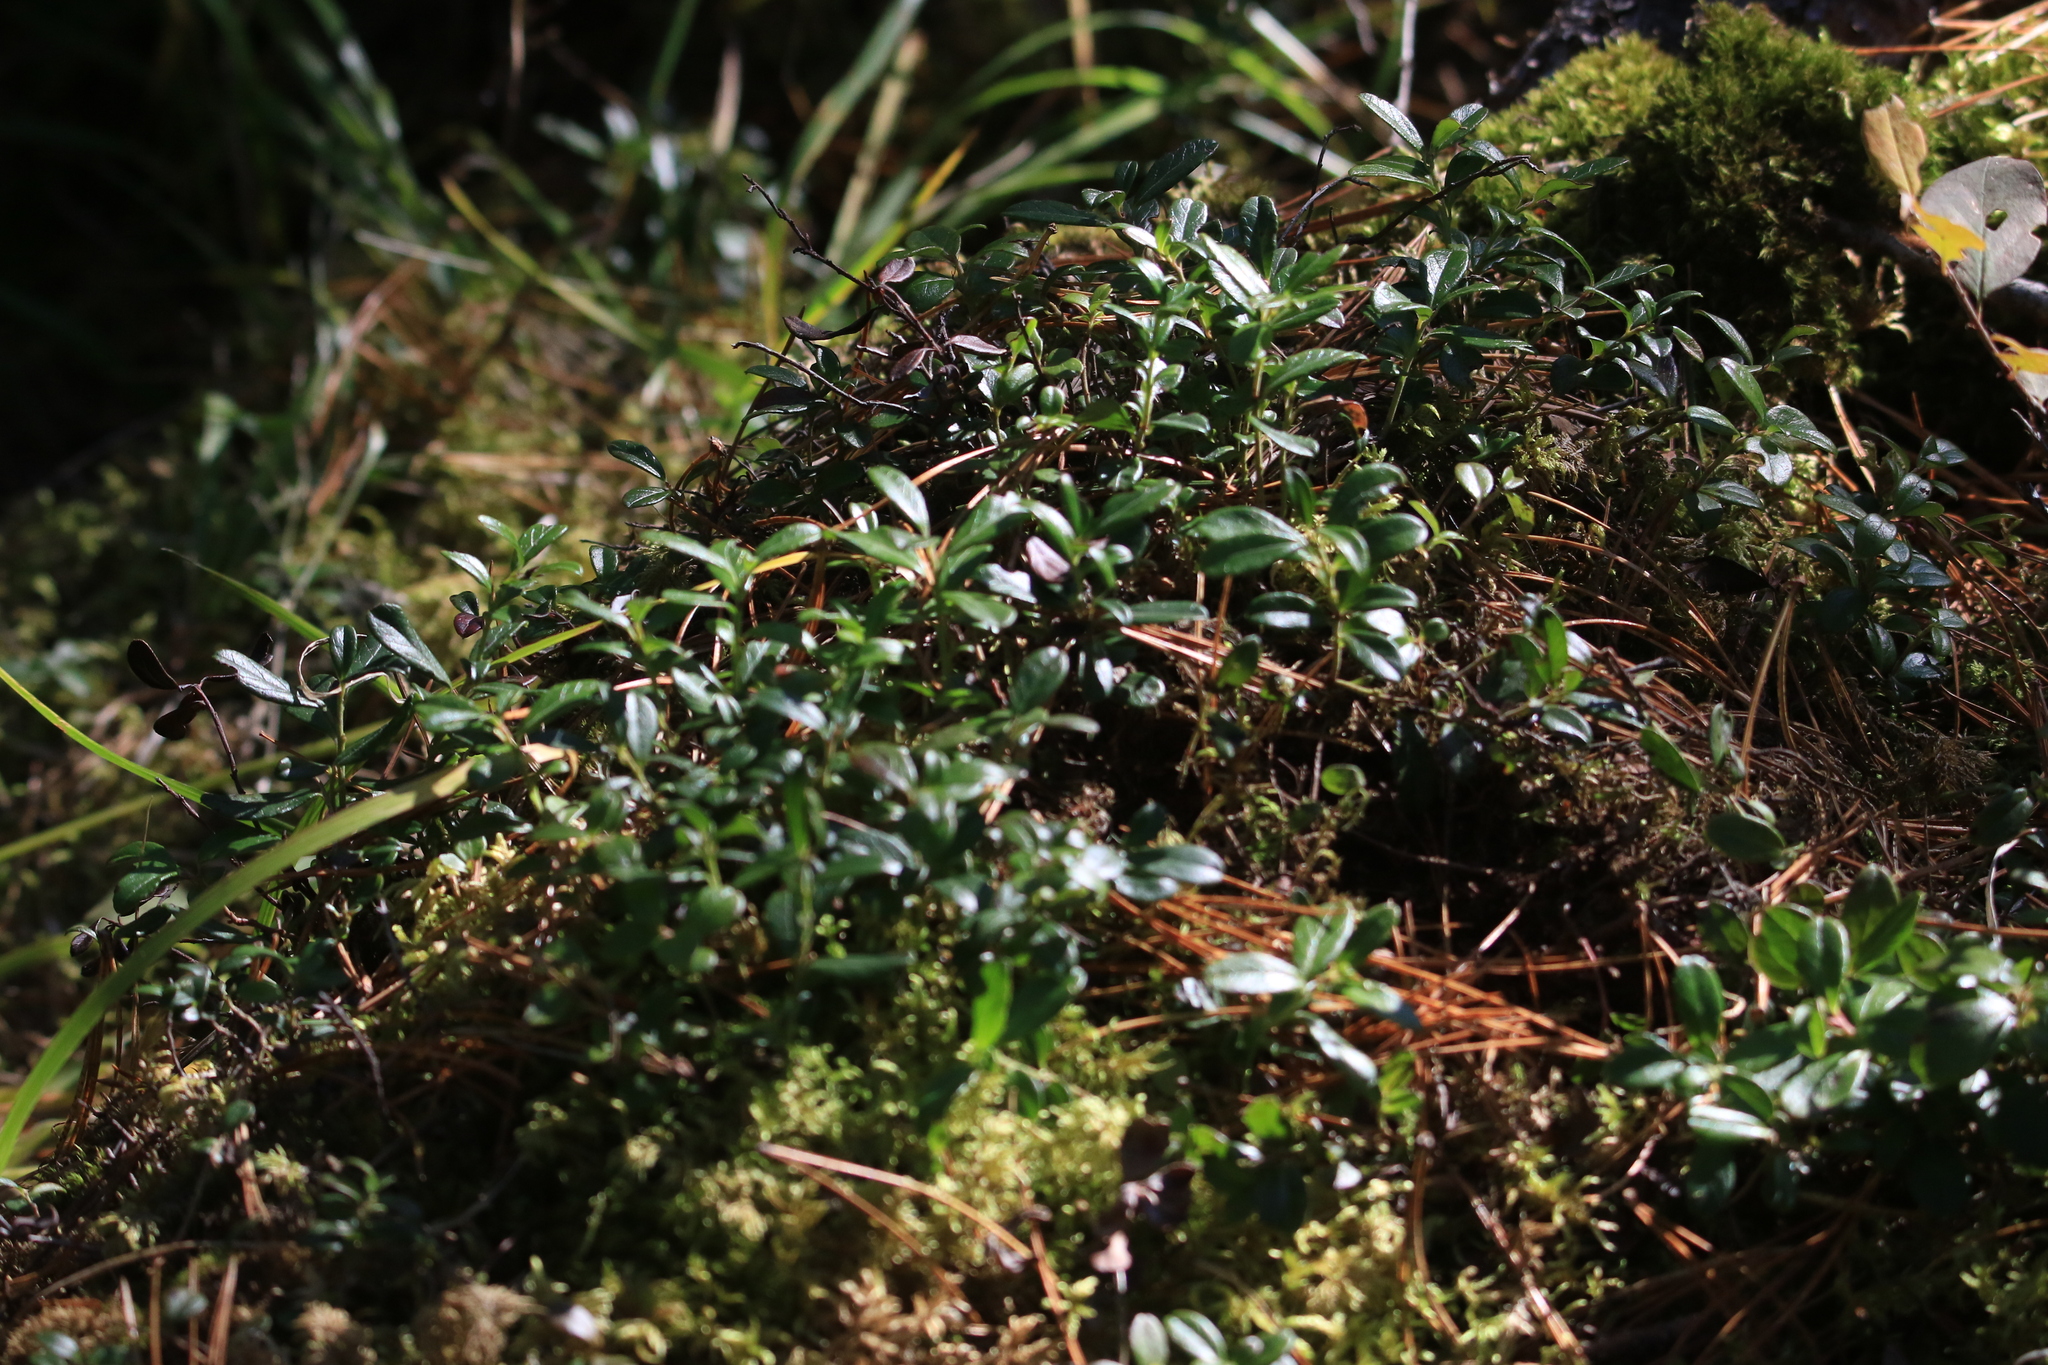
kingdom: Plantae
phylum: Tracheophyta
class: Magnoliopsida
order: Ericales
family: Ericaceae
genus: Vaccinium
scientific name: Vaccinium vitis-idaea
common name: Cowberry
